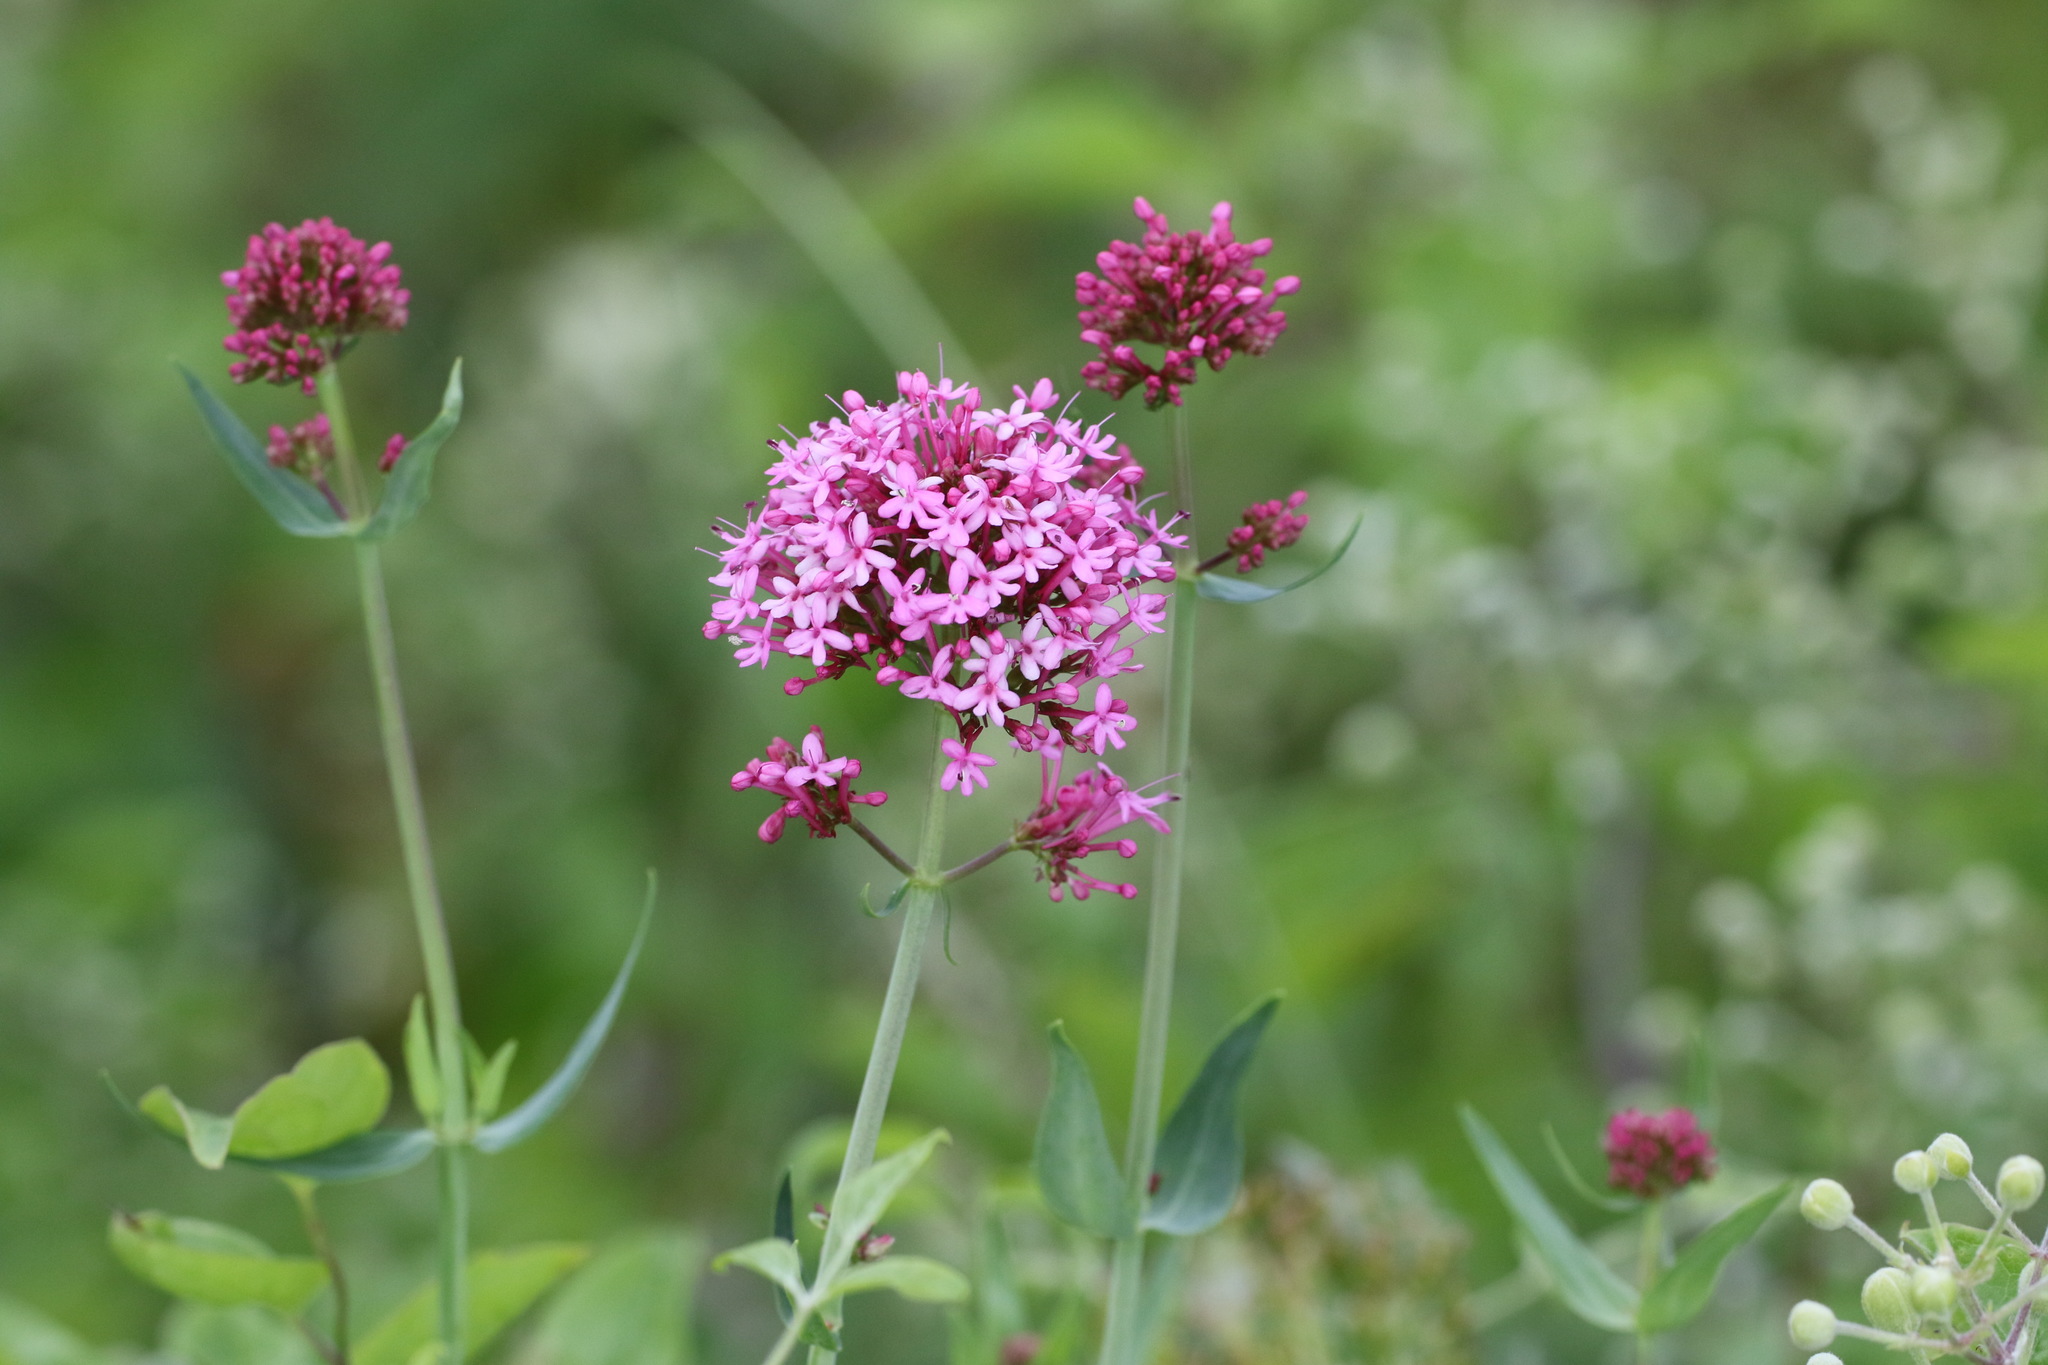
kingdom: Plantae
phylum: Tracheophyta
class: Magnoliopsida
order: Dipsacales
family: Caprifoliaceae
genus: Centranthus
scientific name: Centranthus ruber
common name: Red valerian
